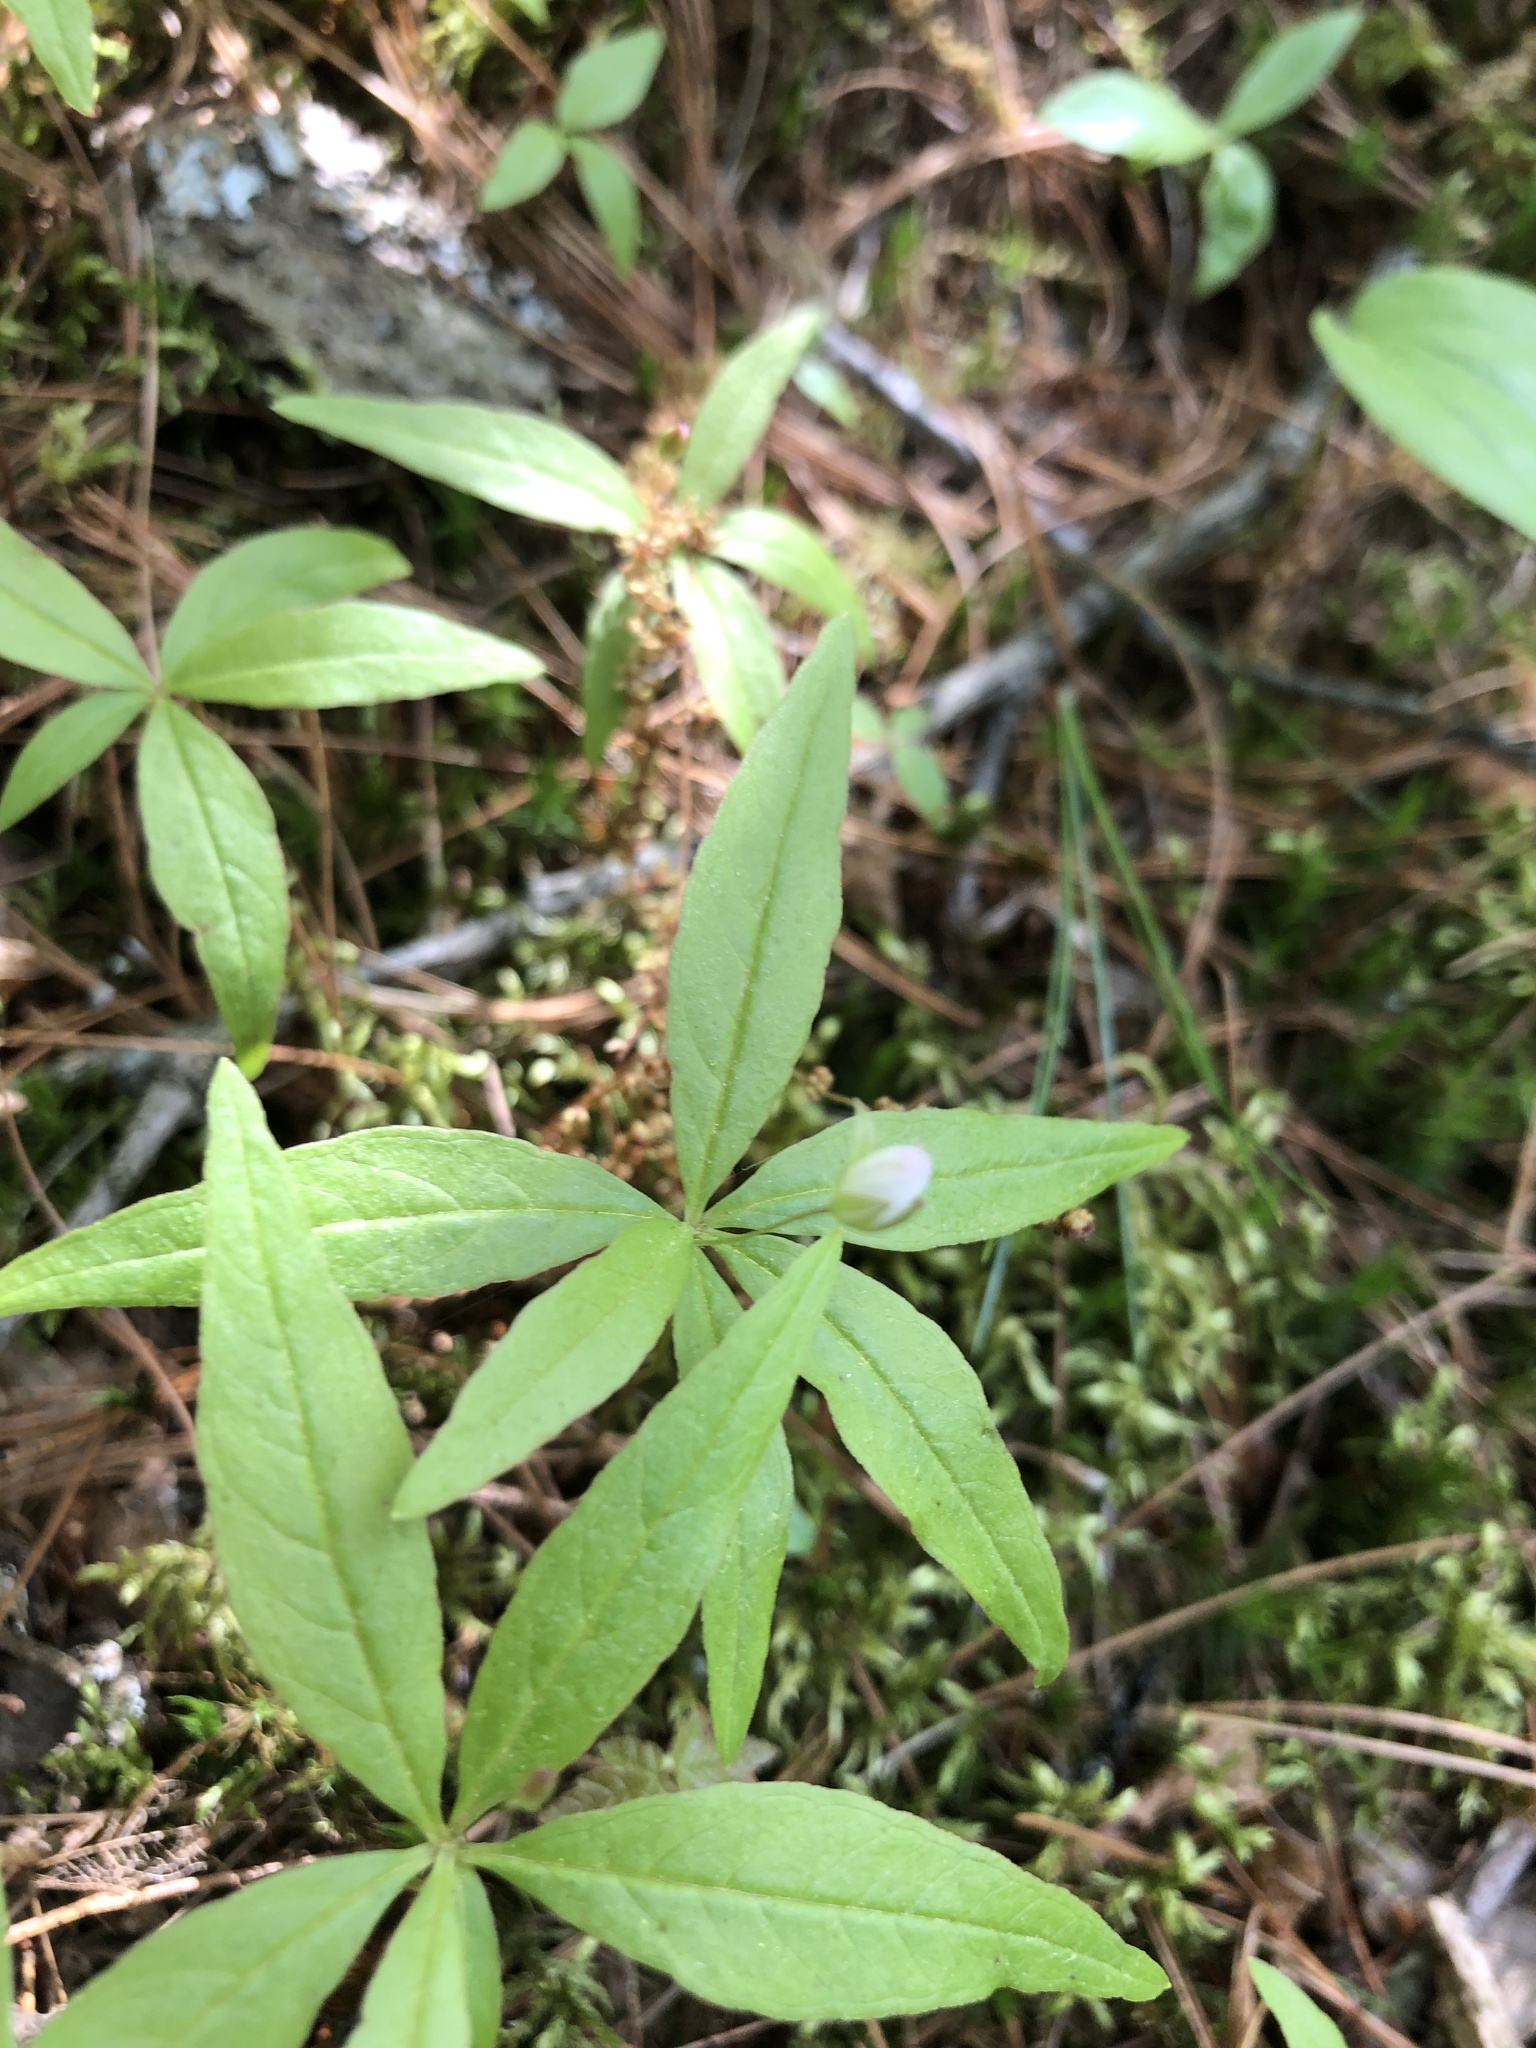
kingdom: Plantae
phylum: Tracheophyta
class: Magnoliopsida
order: Ericales
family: Primulaceae
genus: Lysimachia
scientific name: Lysimachia borealis
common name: American starflower
